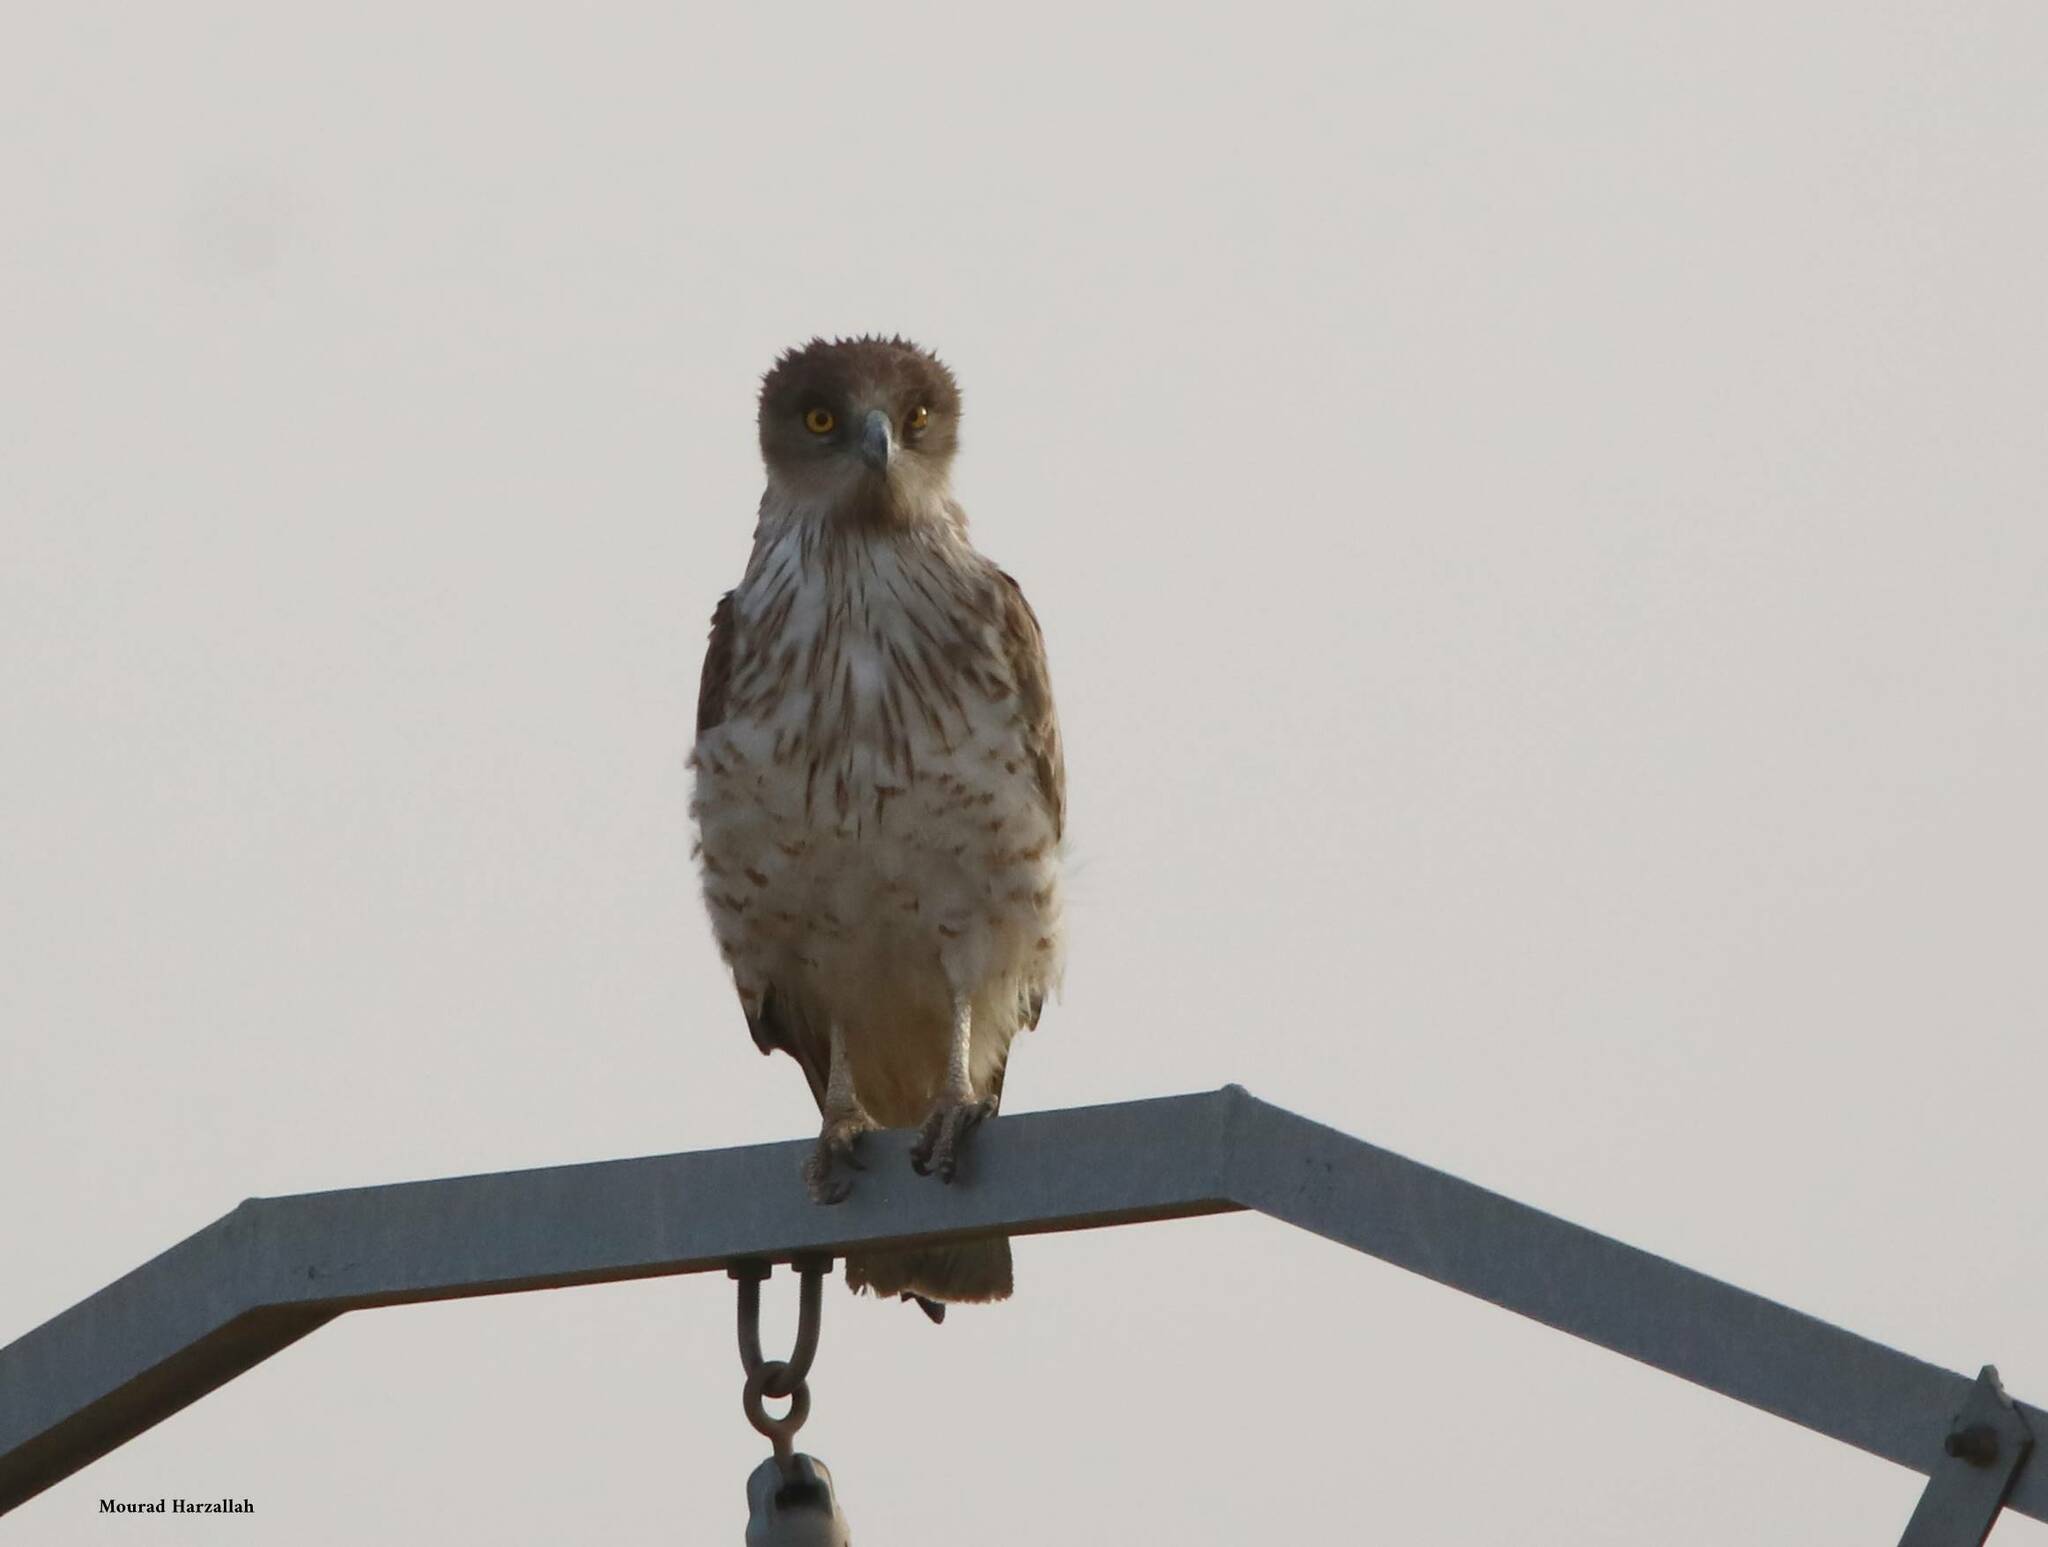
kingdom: Animalia
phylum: Chordata
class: Aves
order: Accipitriformes
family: Accipitridae
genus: Circaetus
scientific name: Circaetus gallicus
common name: Short-toed snake eagle
